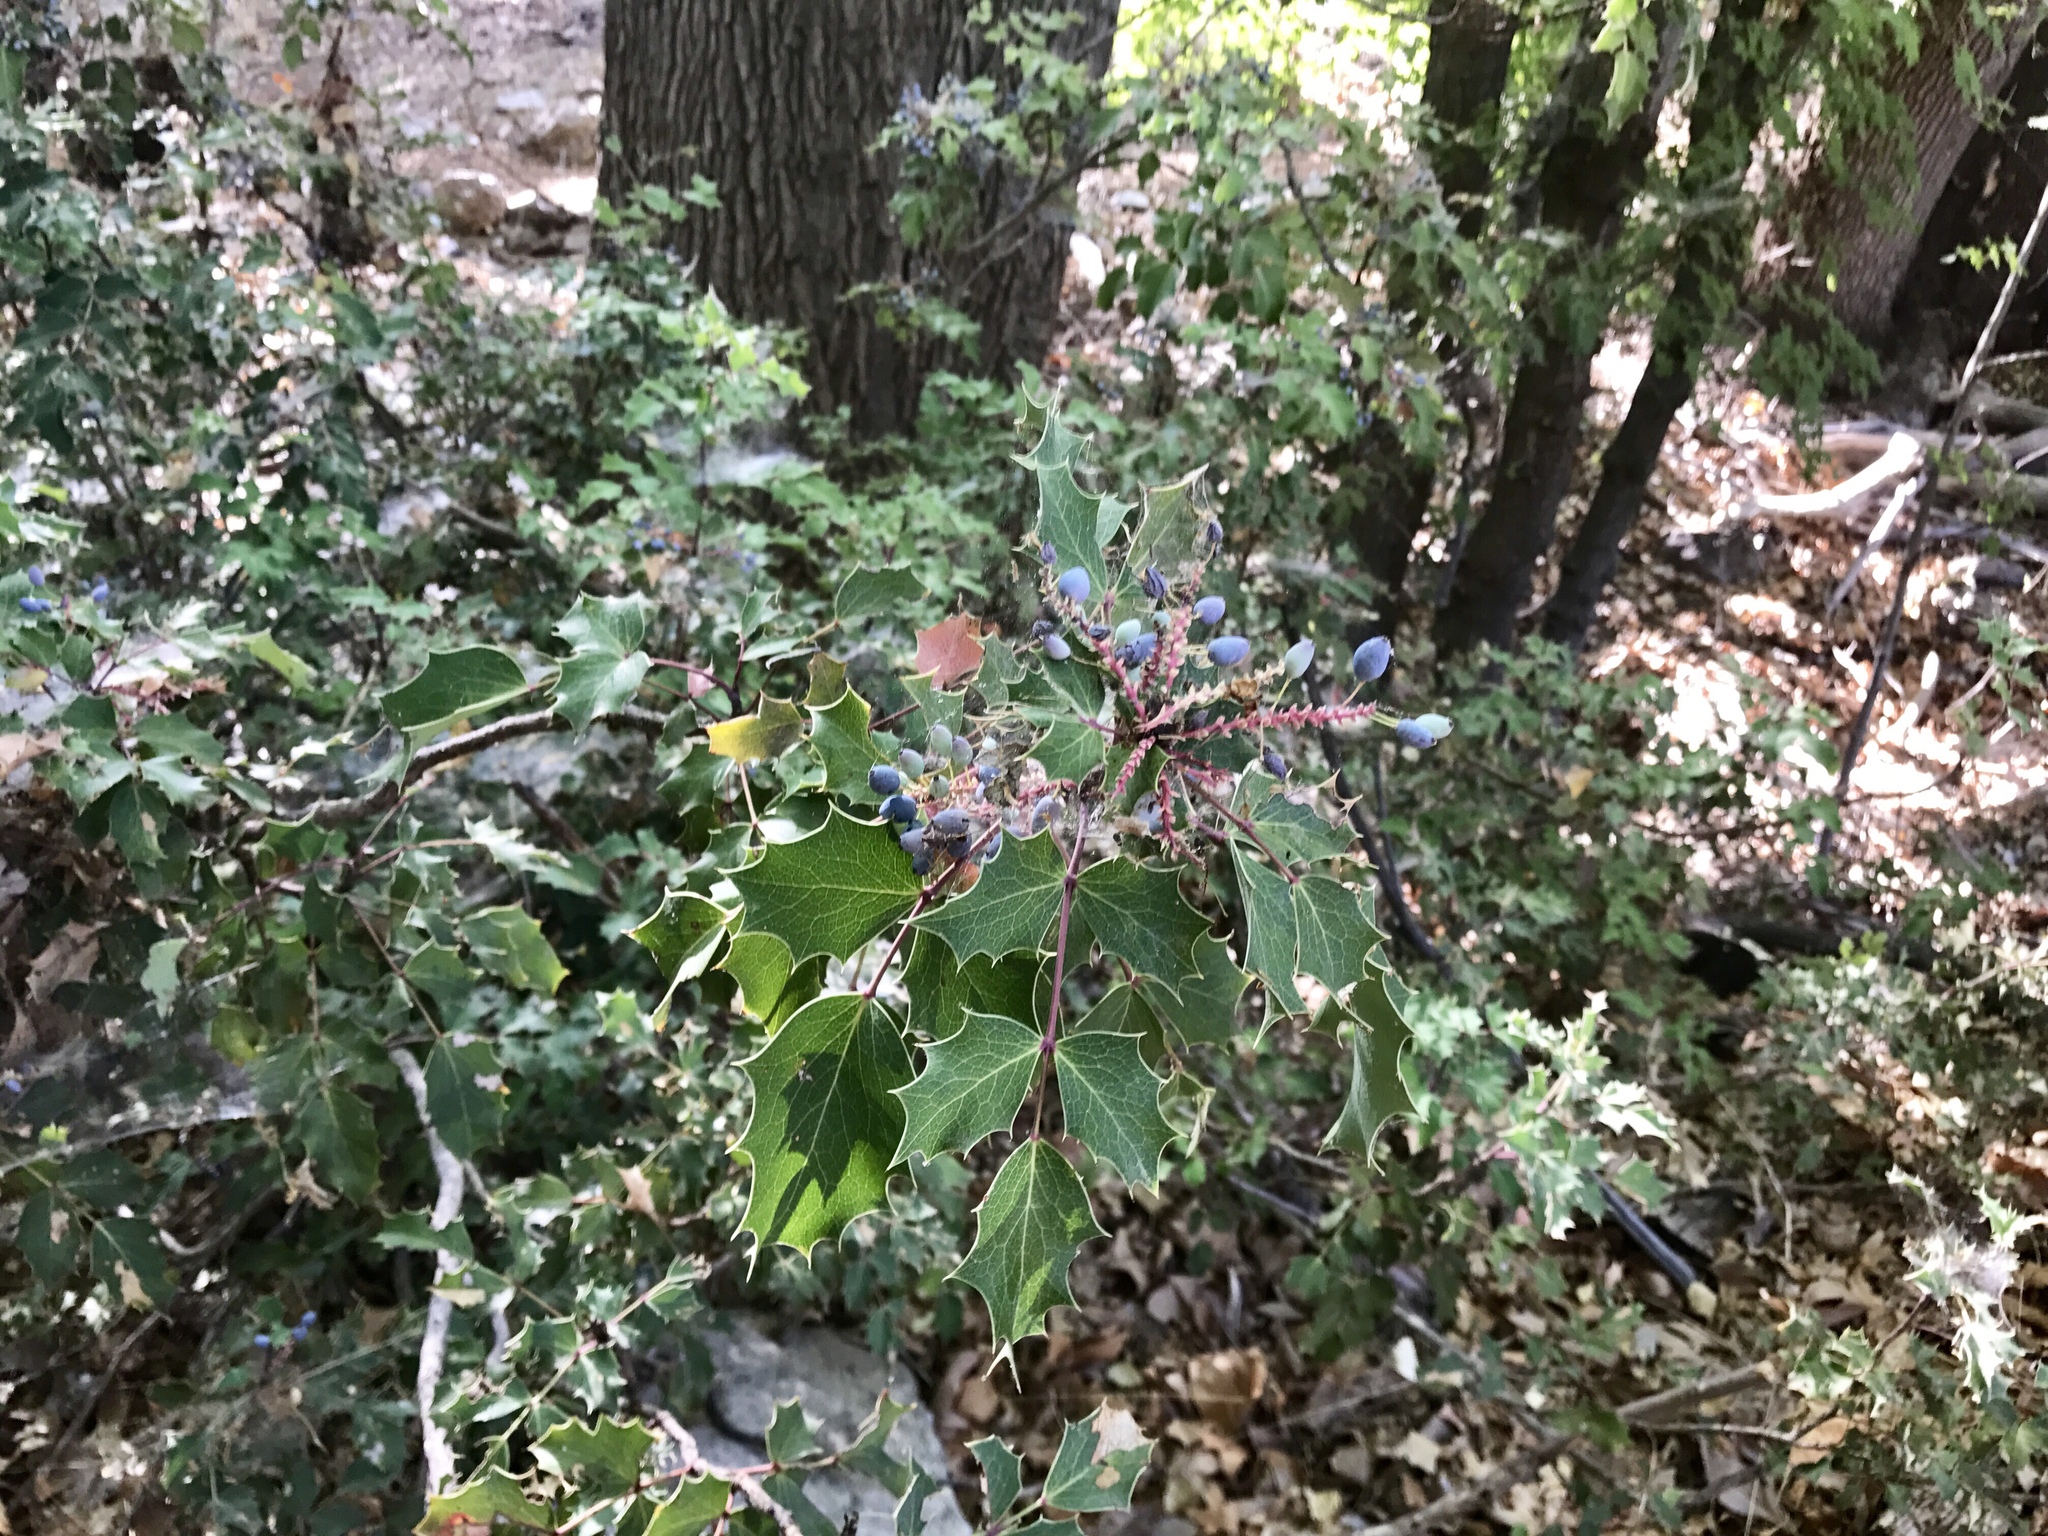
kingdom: Plantae
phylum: Tracheophyta
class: Magnoliopsida
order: Ranunculales
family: Berberidaceae
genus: Mahonia
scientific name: Mahonia wilcoxii
